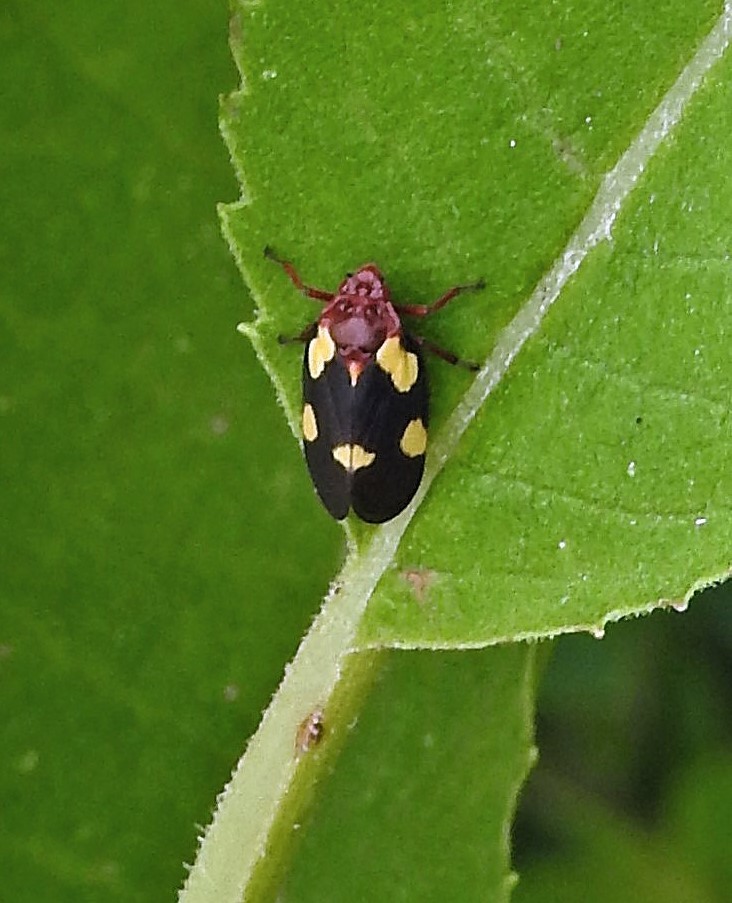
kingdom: Animalia
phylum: Arthropoda
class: Insecta
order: Hemiptera
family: Cercopidae
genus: Sphenorhina
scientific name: Sphenorhina limbata
